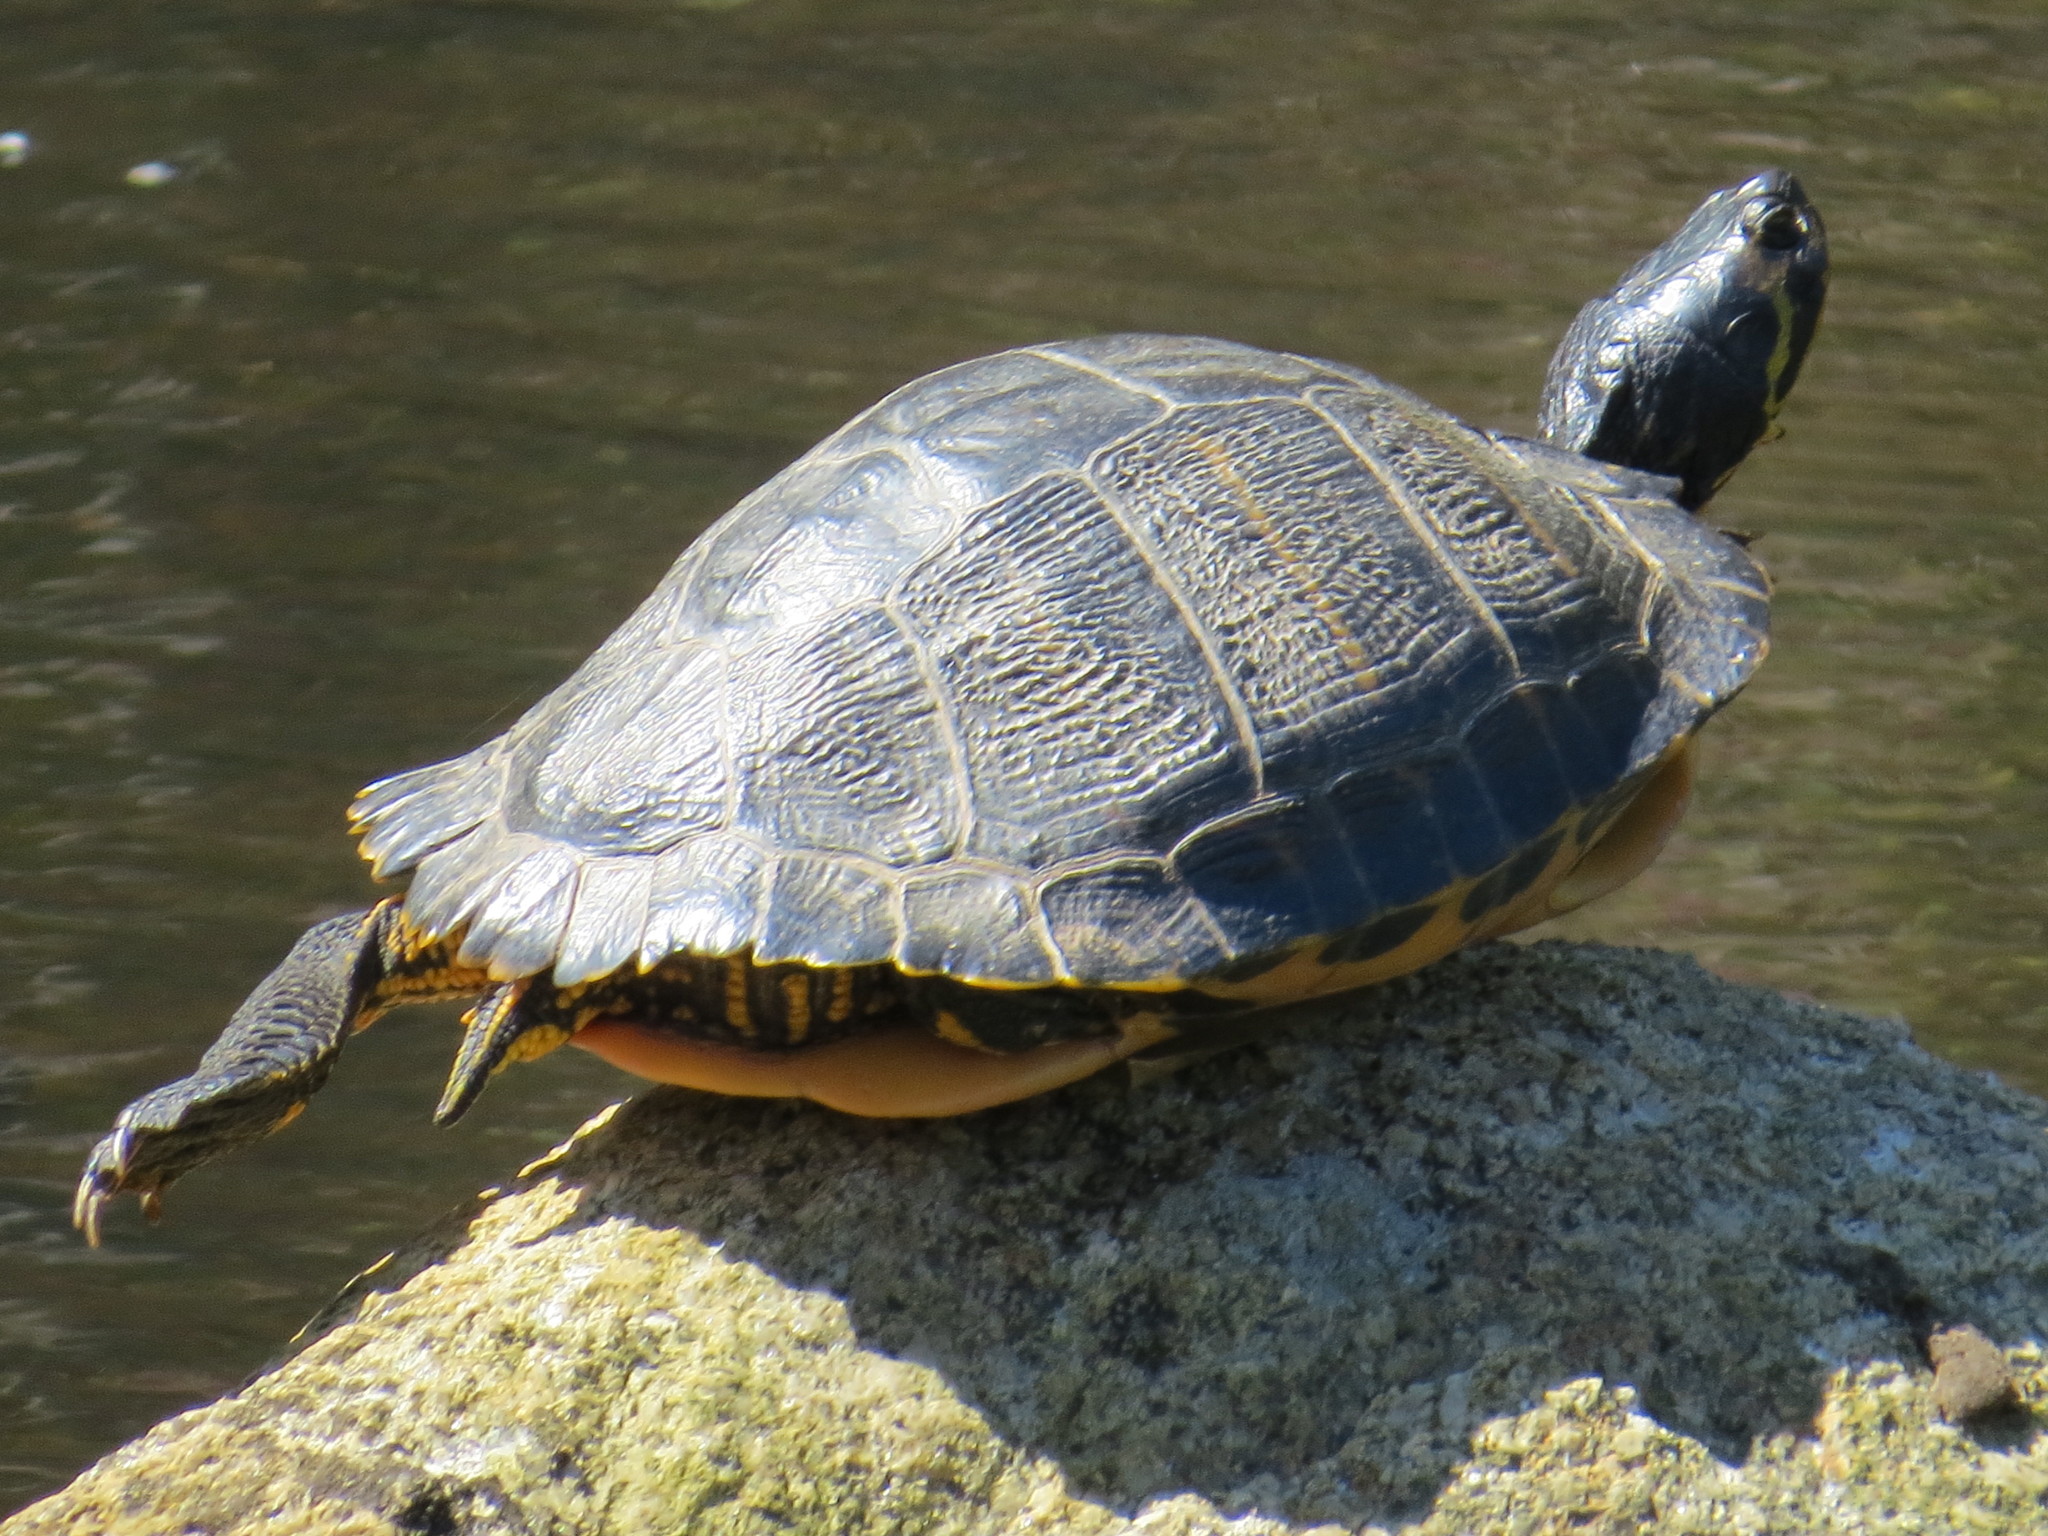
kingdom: Animalia
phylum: Chordata
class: Testudines
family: Emydidae
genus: Trachemys
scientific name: Trachemys scripta
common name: Slider
